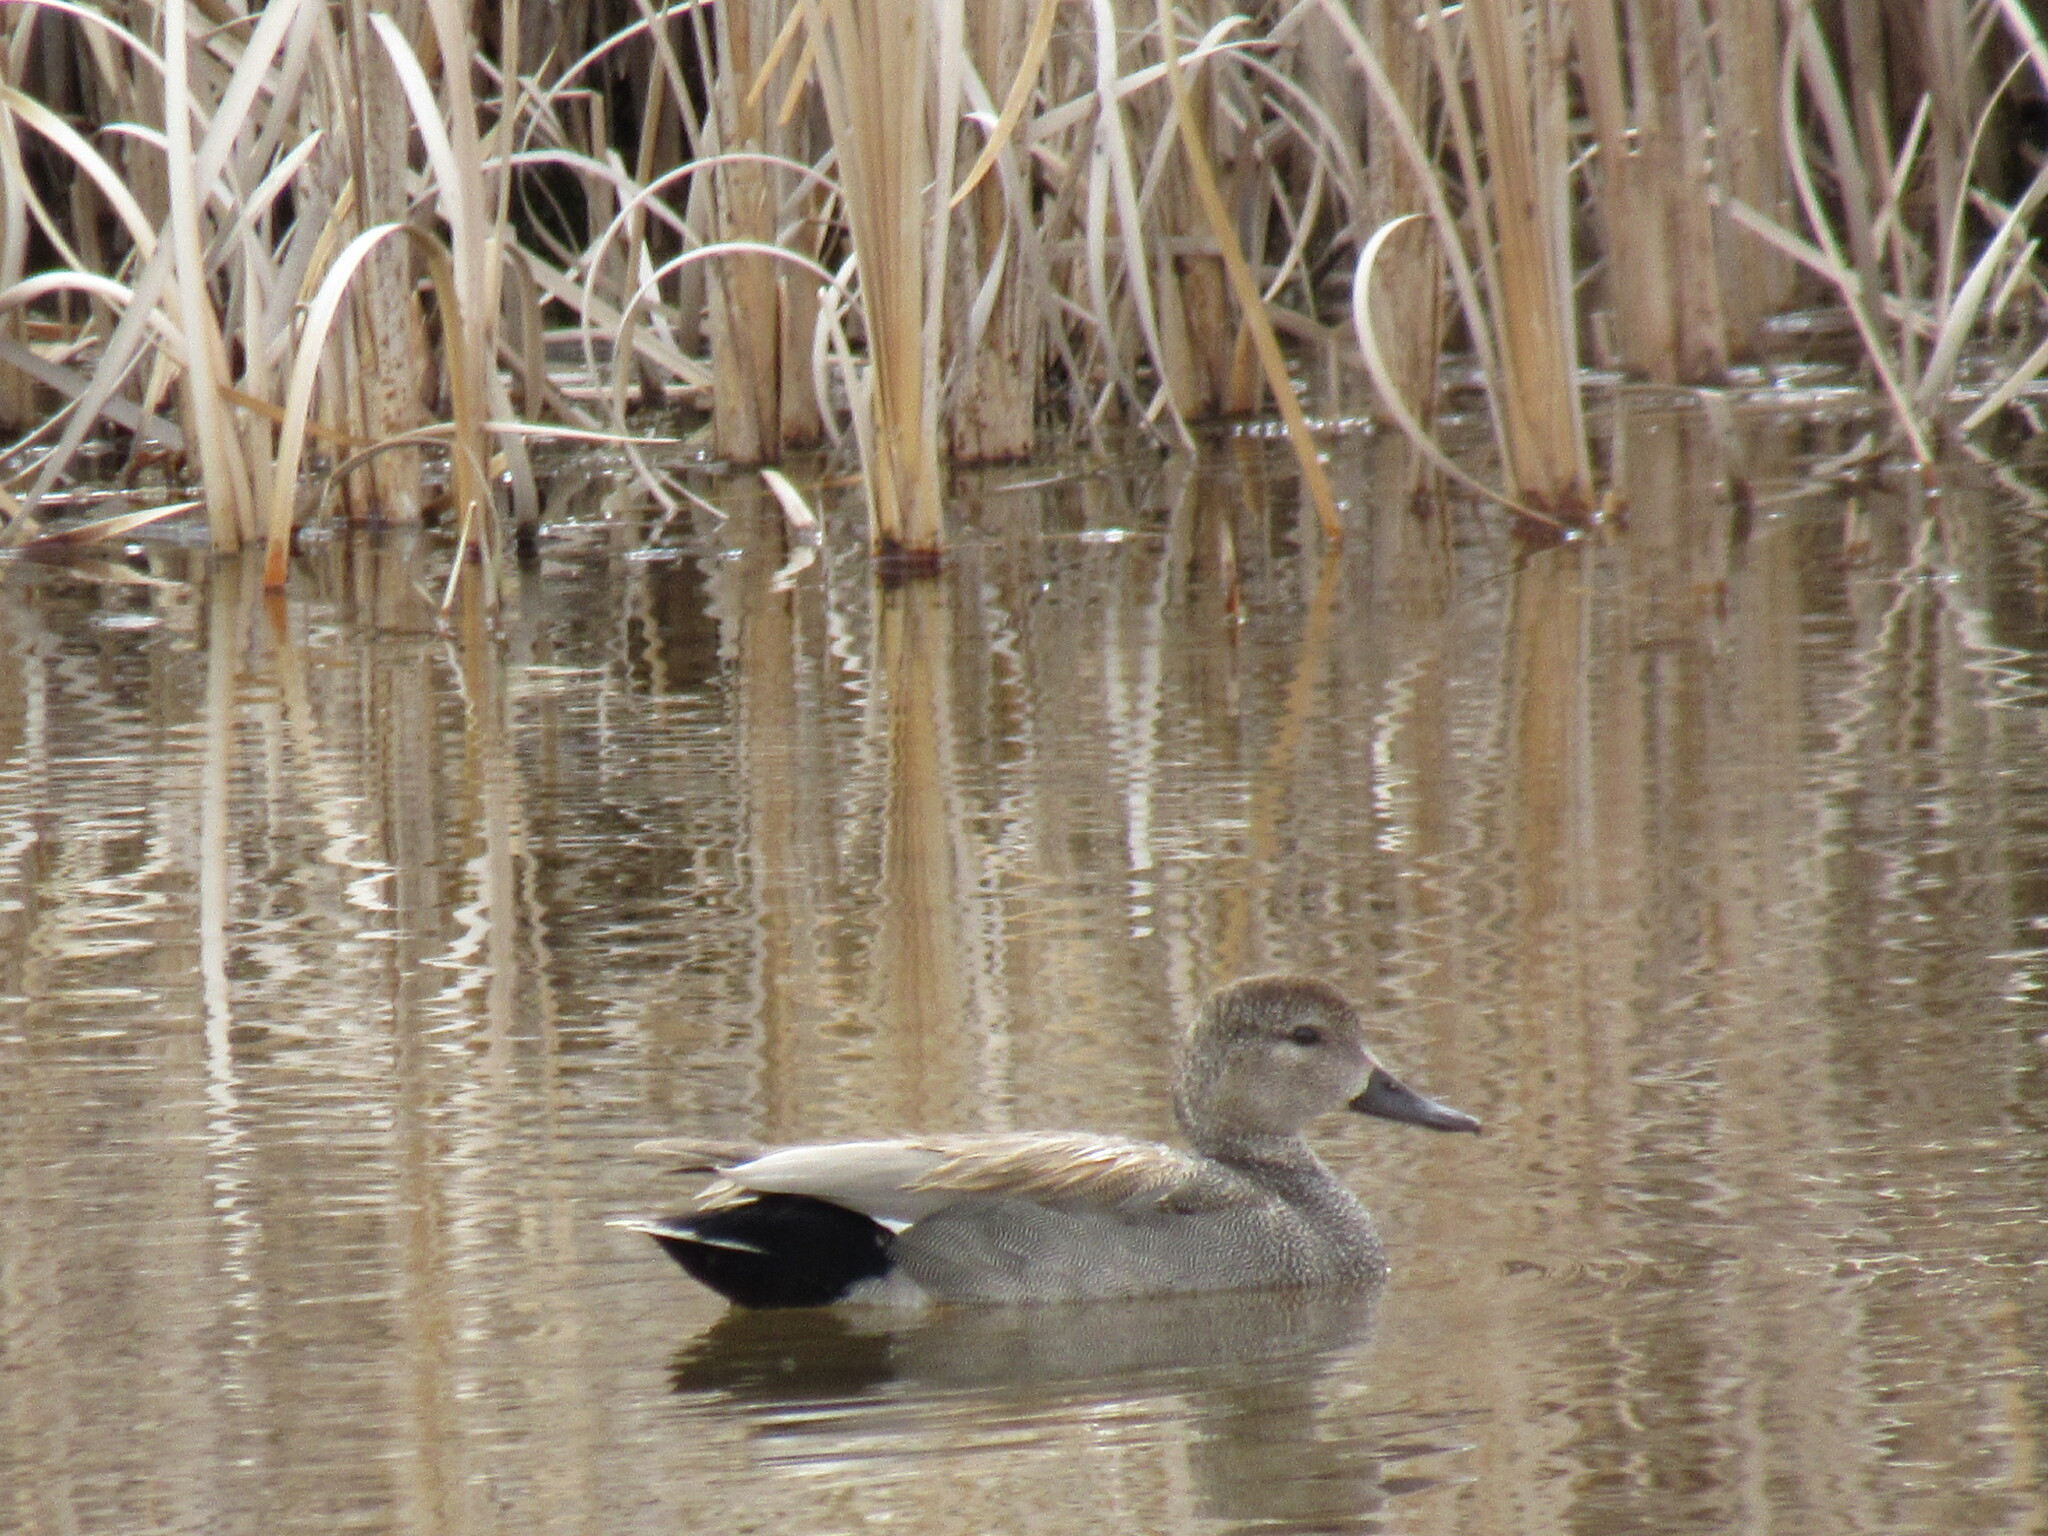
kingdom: Animalia
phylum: Chordata
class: Aves
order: Anseriformes
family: Anatidae
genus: Mareca
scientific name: Mareca strepera
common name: Gadwall
